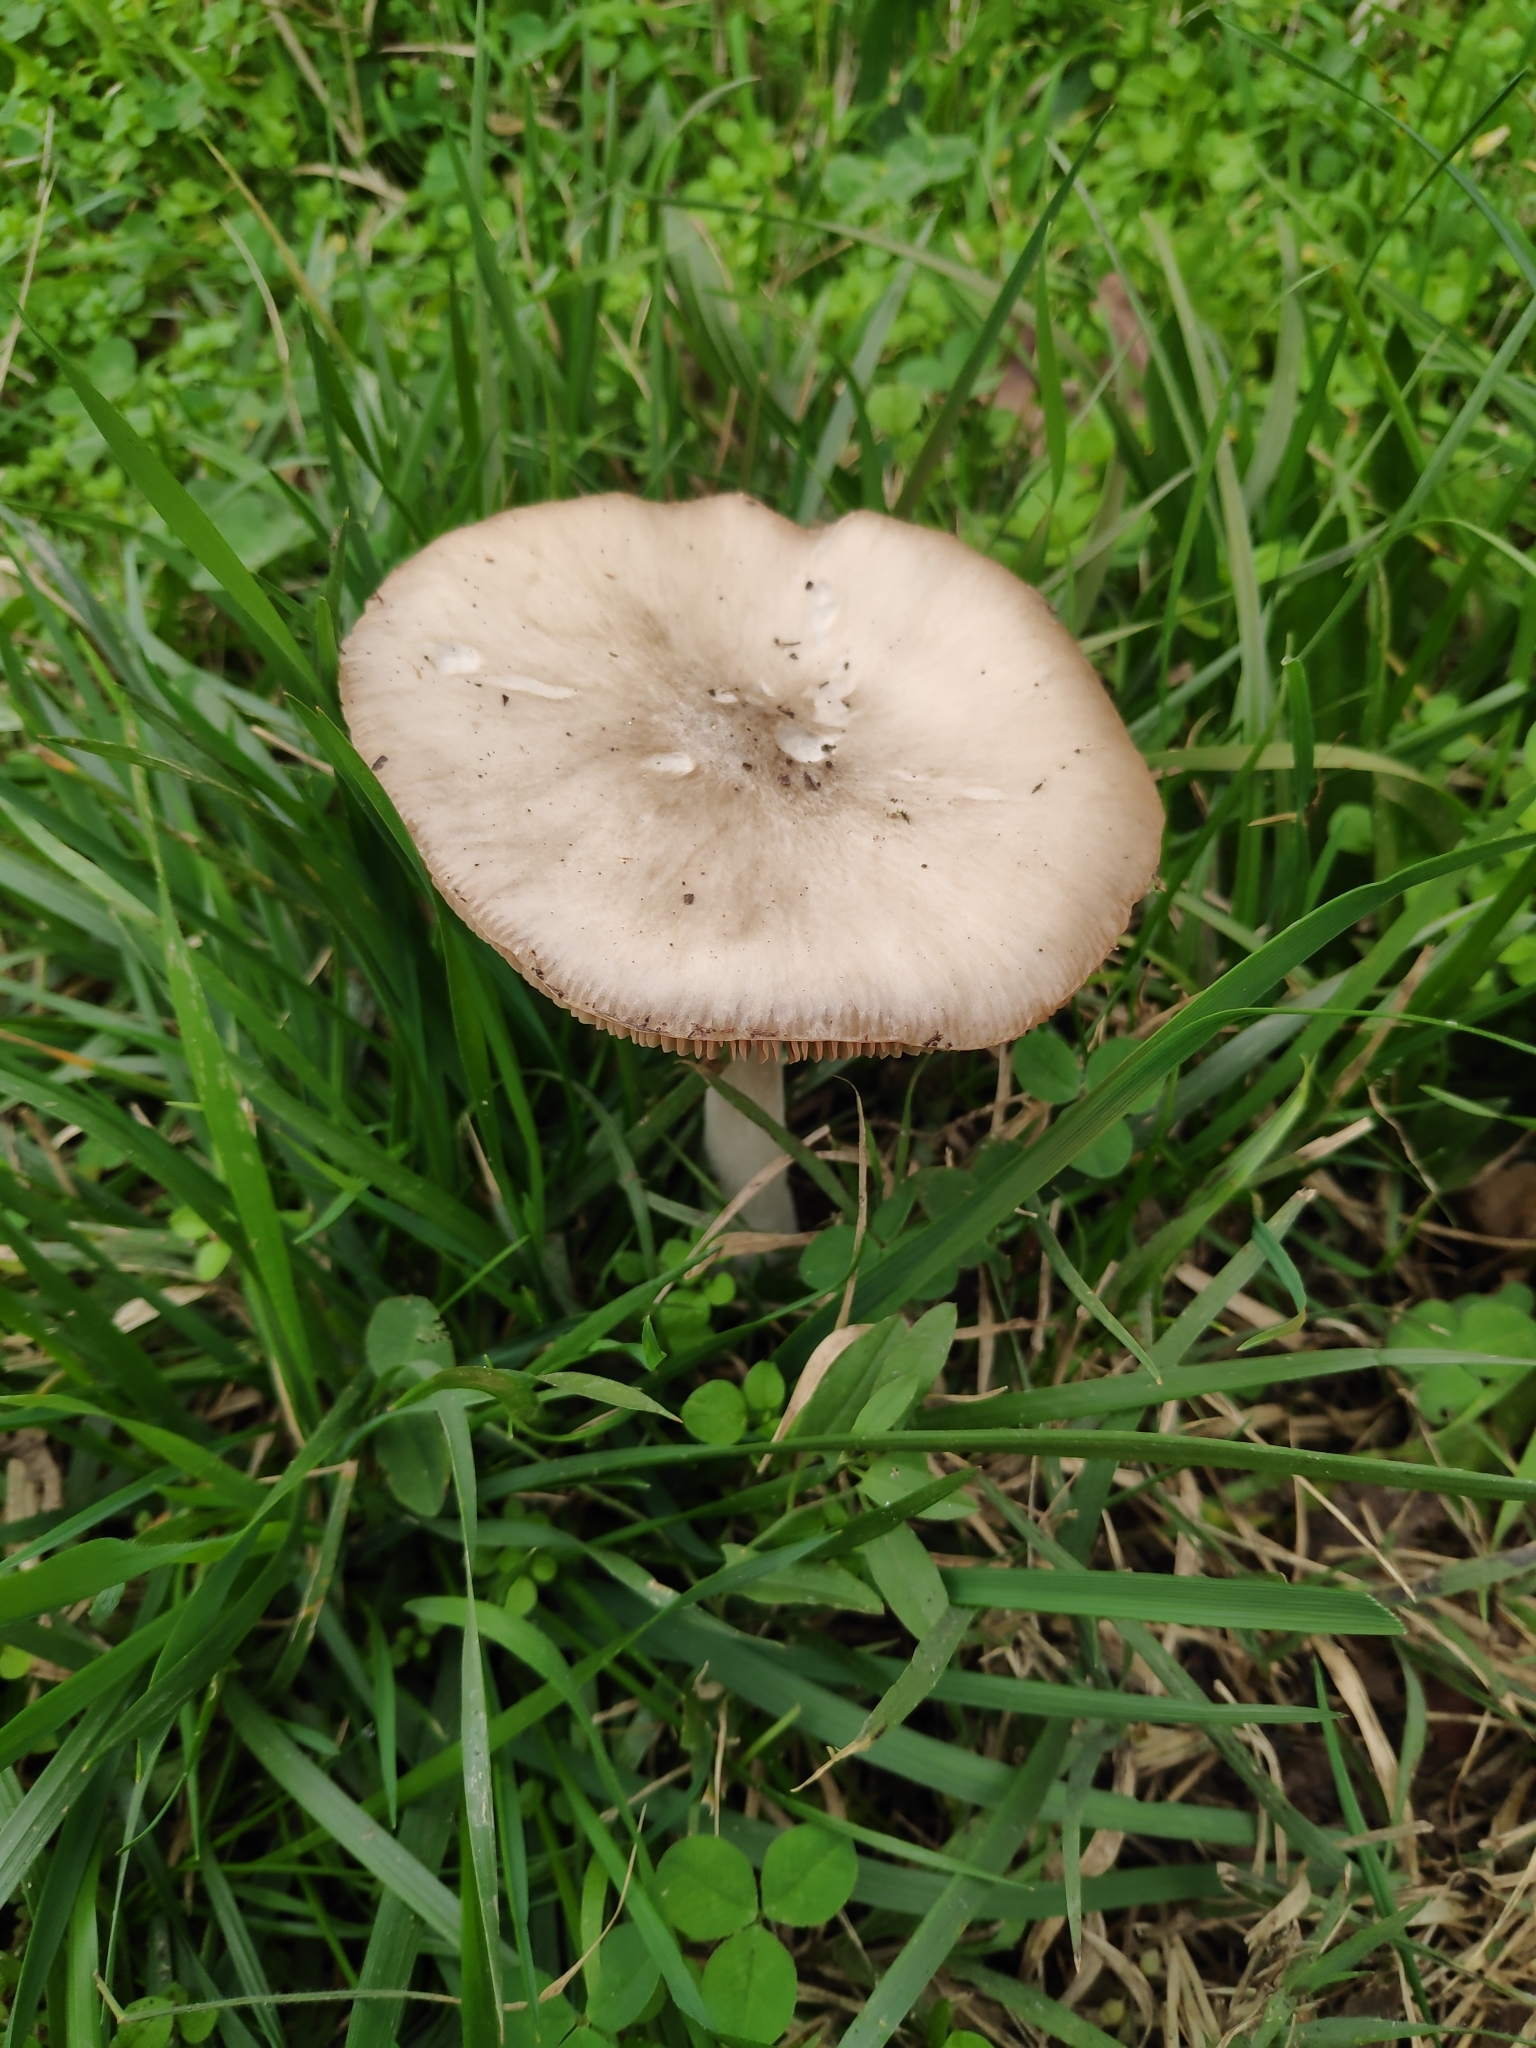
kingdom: Fungi
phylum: Basidiomycota
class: Agaricomycetes
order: Agaricales
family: Pluteaceae
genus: Volvopluteus
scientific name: Volvopluteus gloiocephalus
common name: Stubble rosegill
